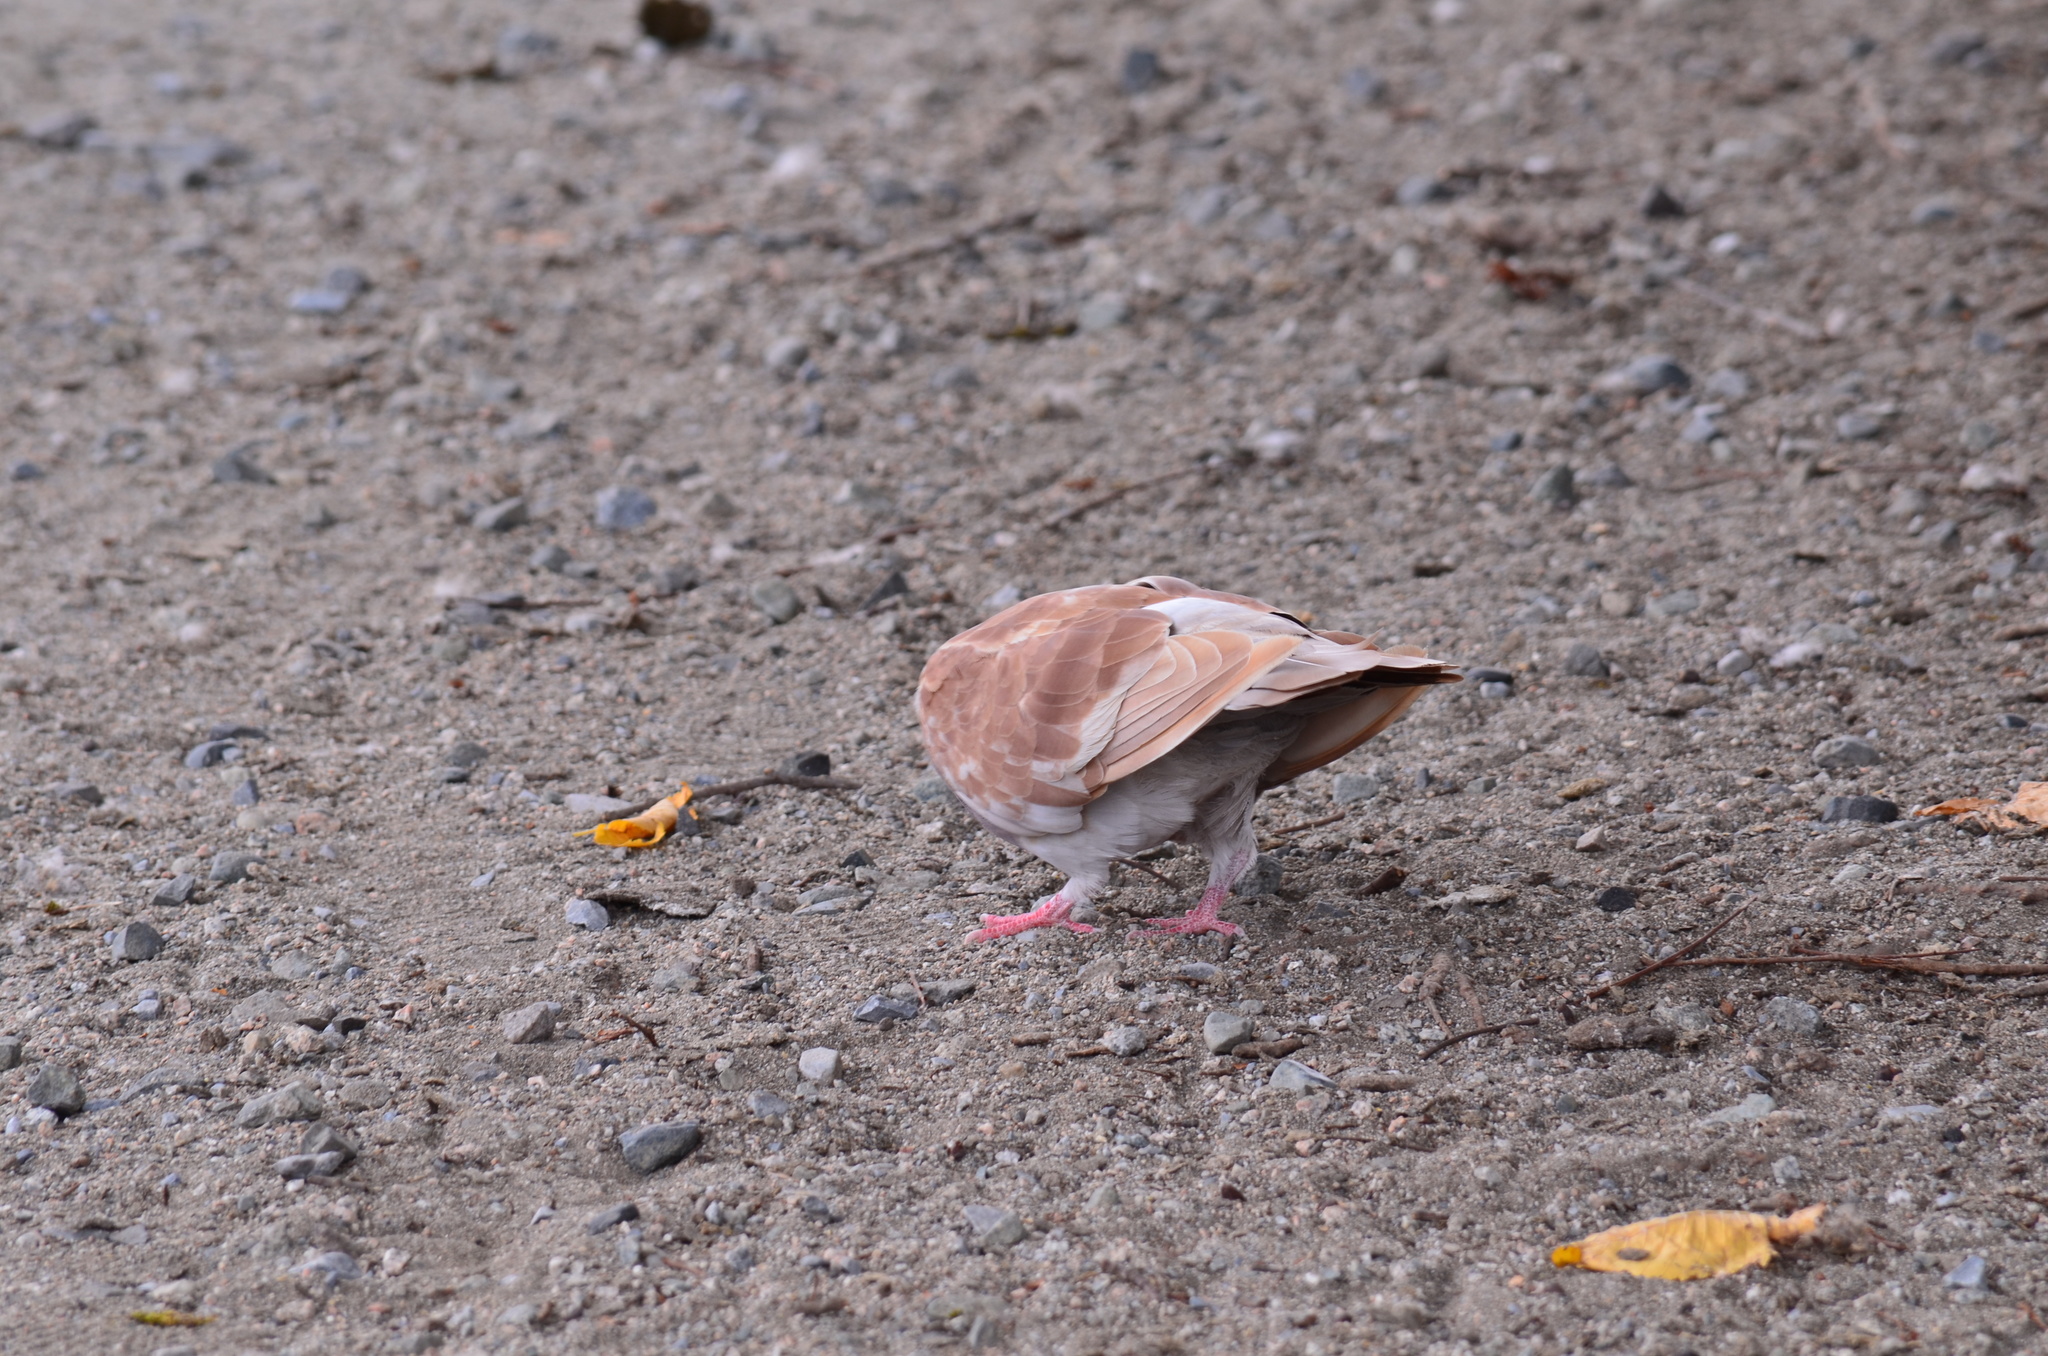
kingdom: Animalia
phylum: Chordata
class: Aves
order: Columbiformes
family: Columbidae
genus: Columba
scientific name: Columba livia
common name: Rock pigeon
